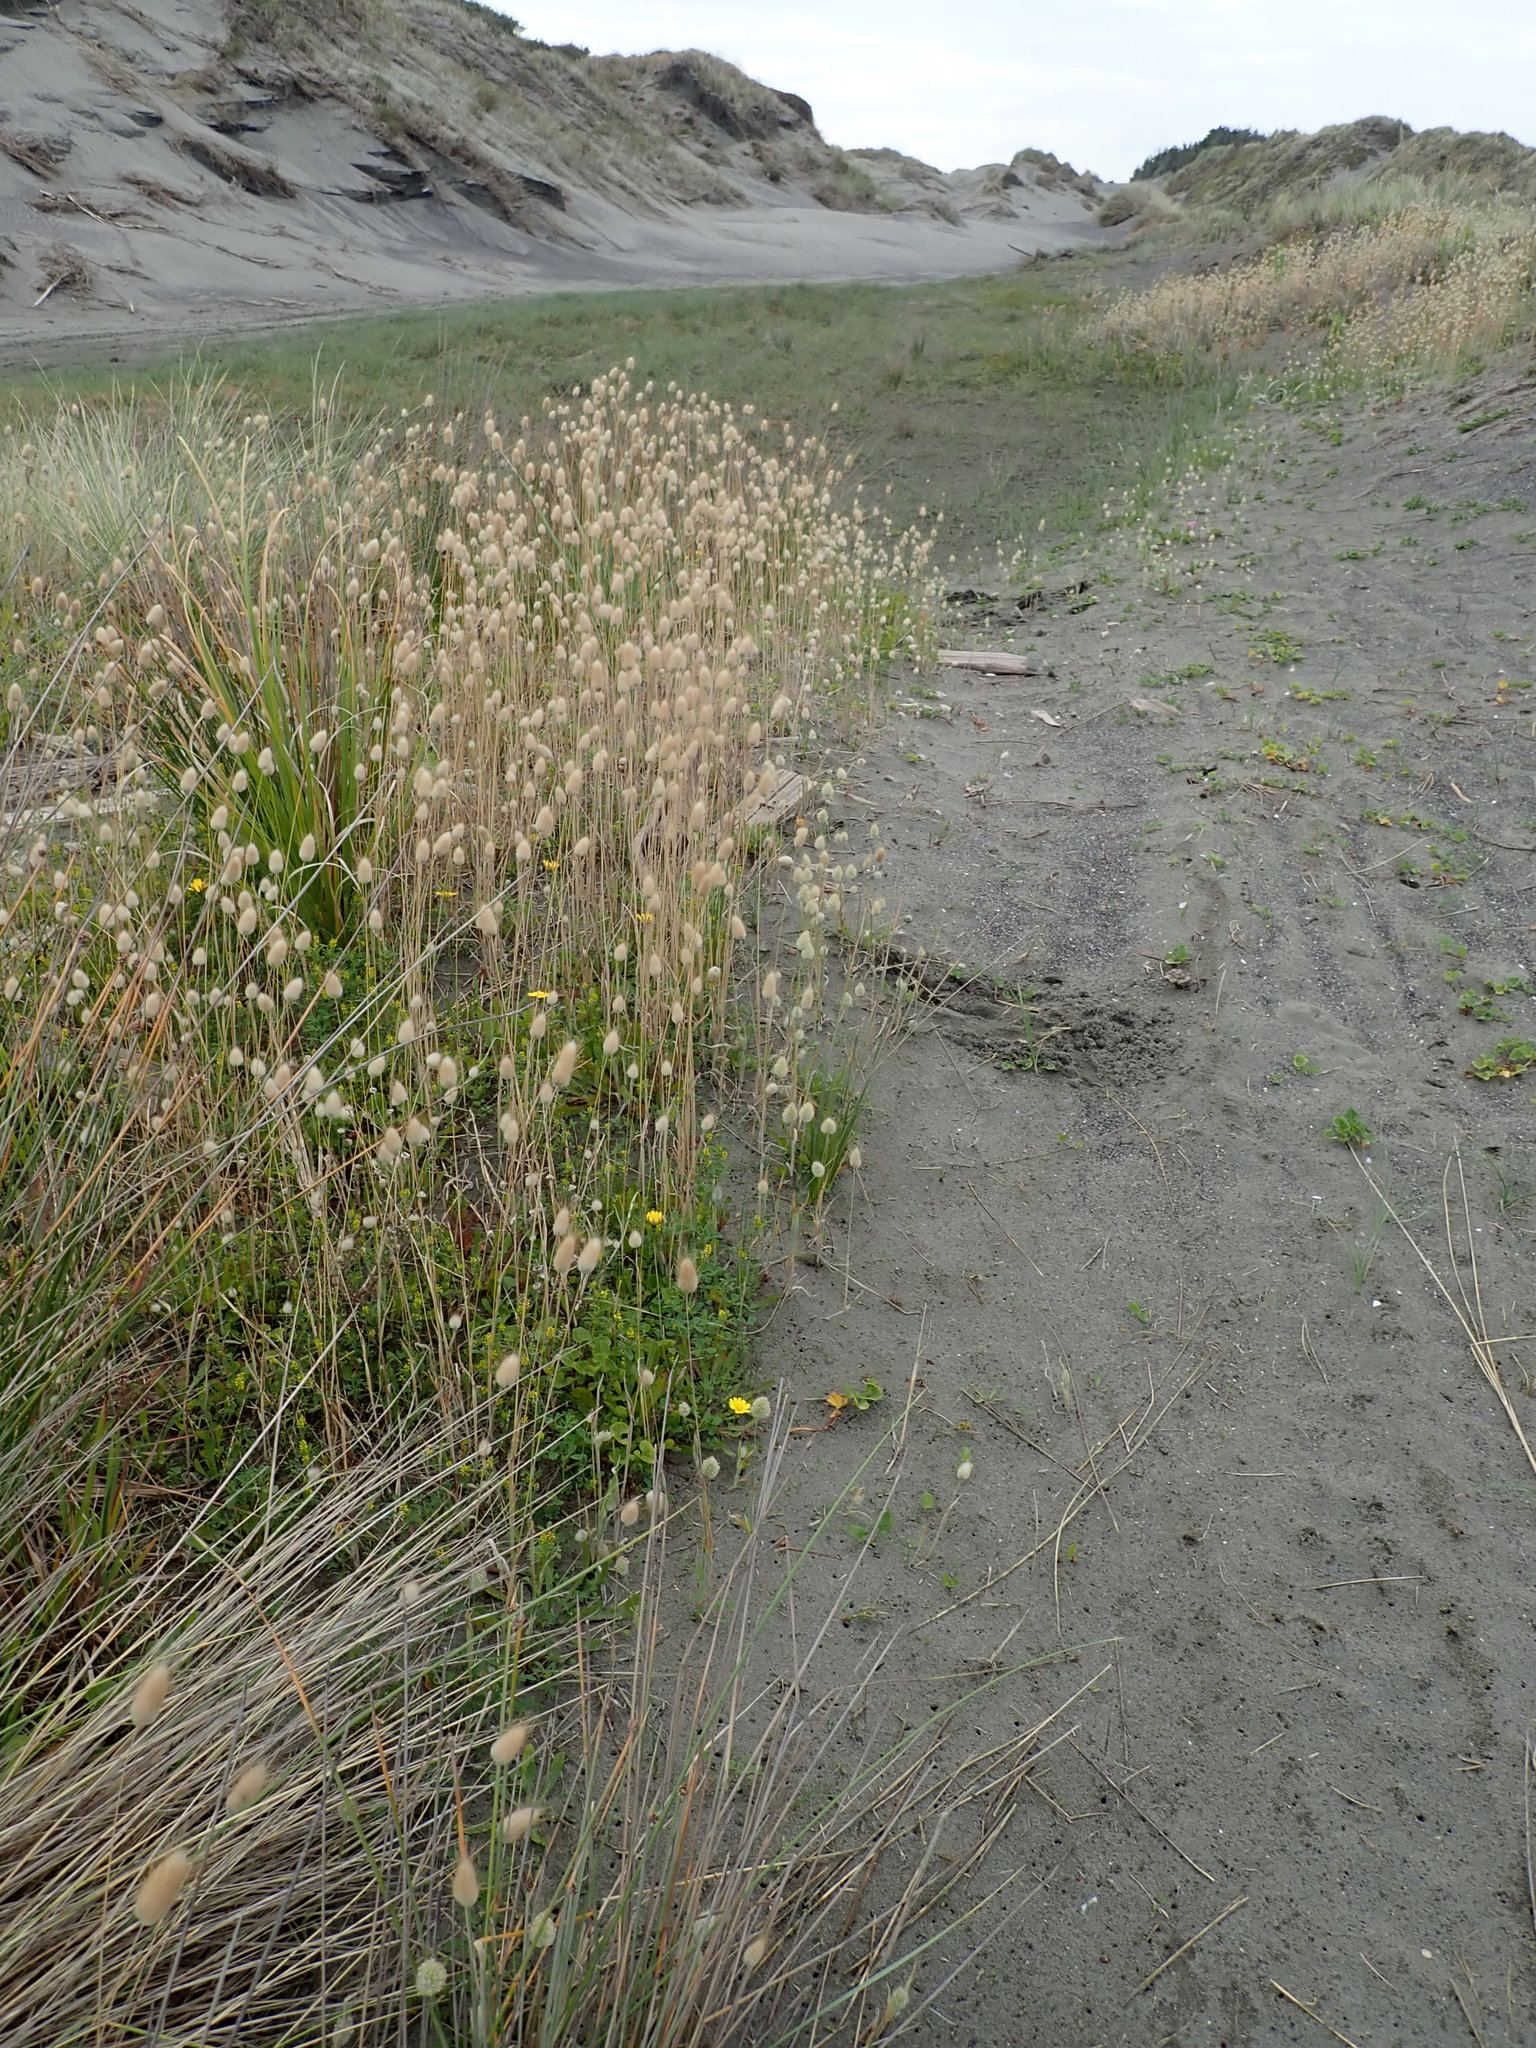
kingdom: Plantae
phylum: Tracheophyta
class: Liliopsida
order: Poales
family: Poaceae
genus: Lagurus
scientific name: Lagurus ovatus
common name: Hare's-tail
